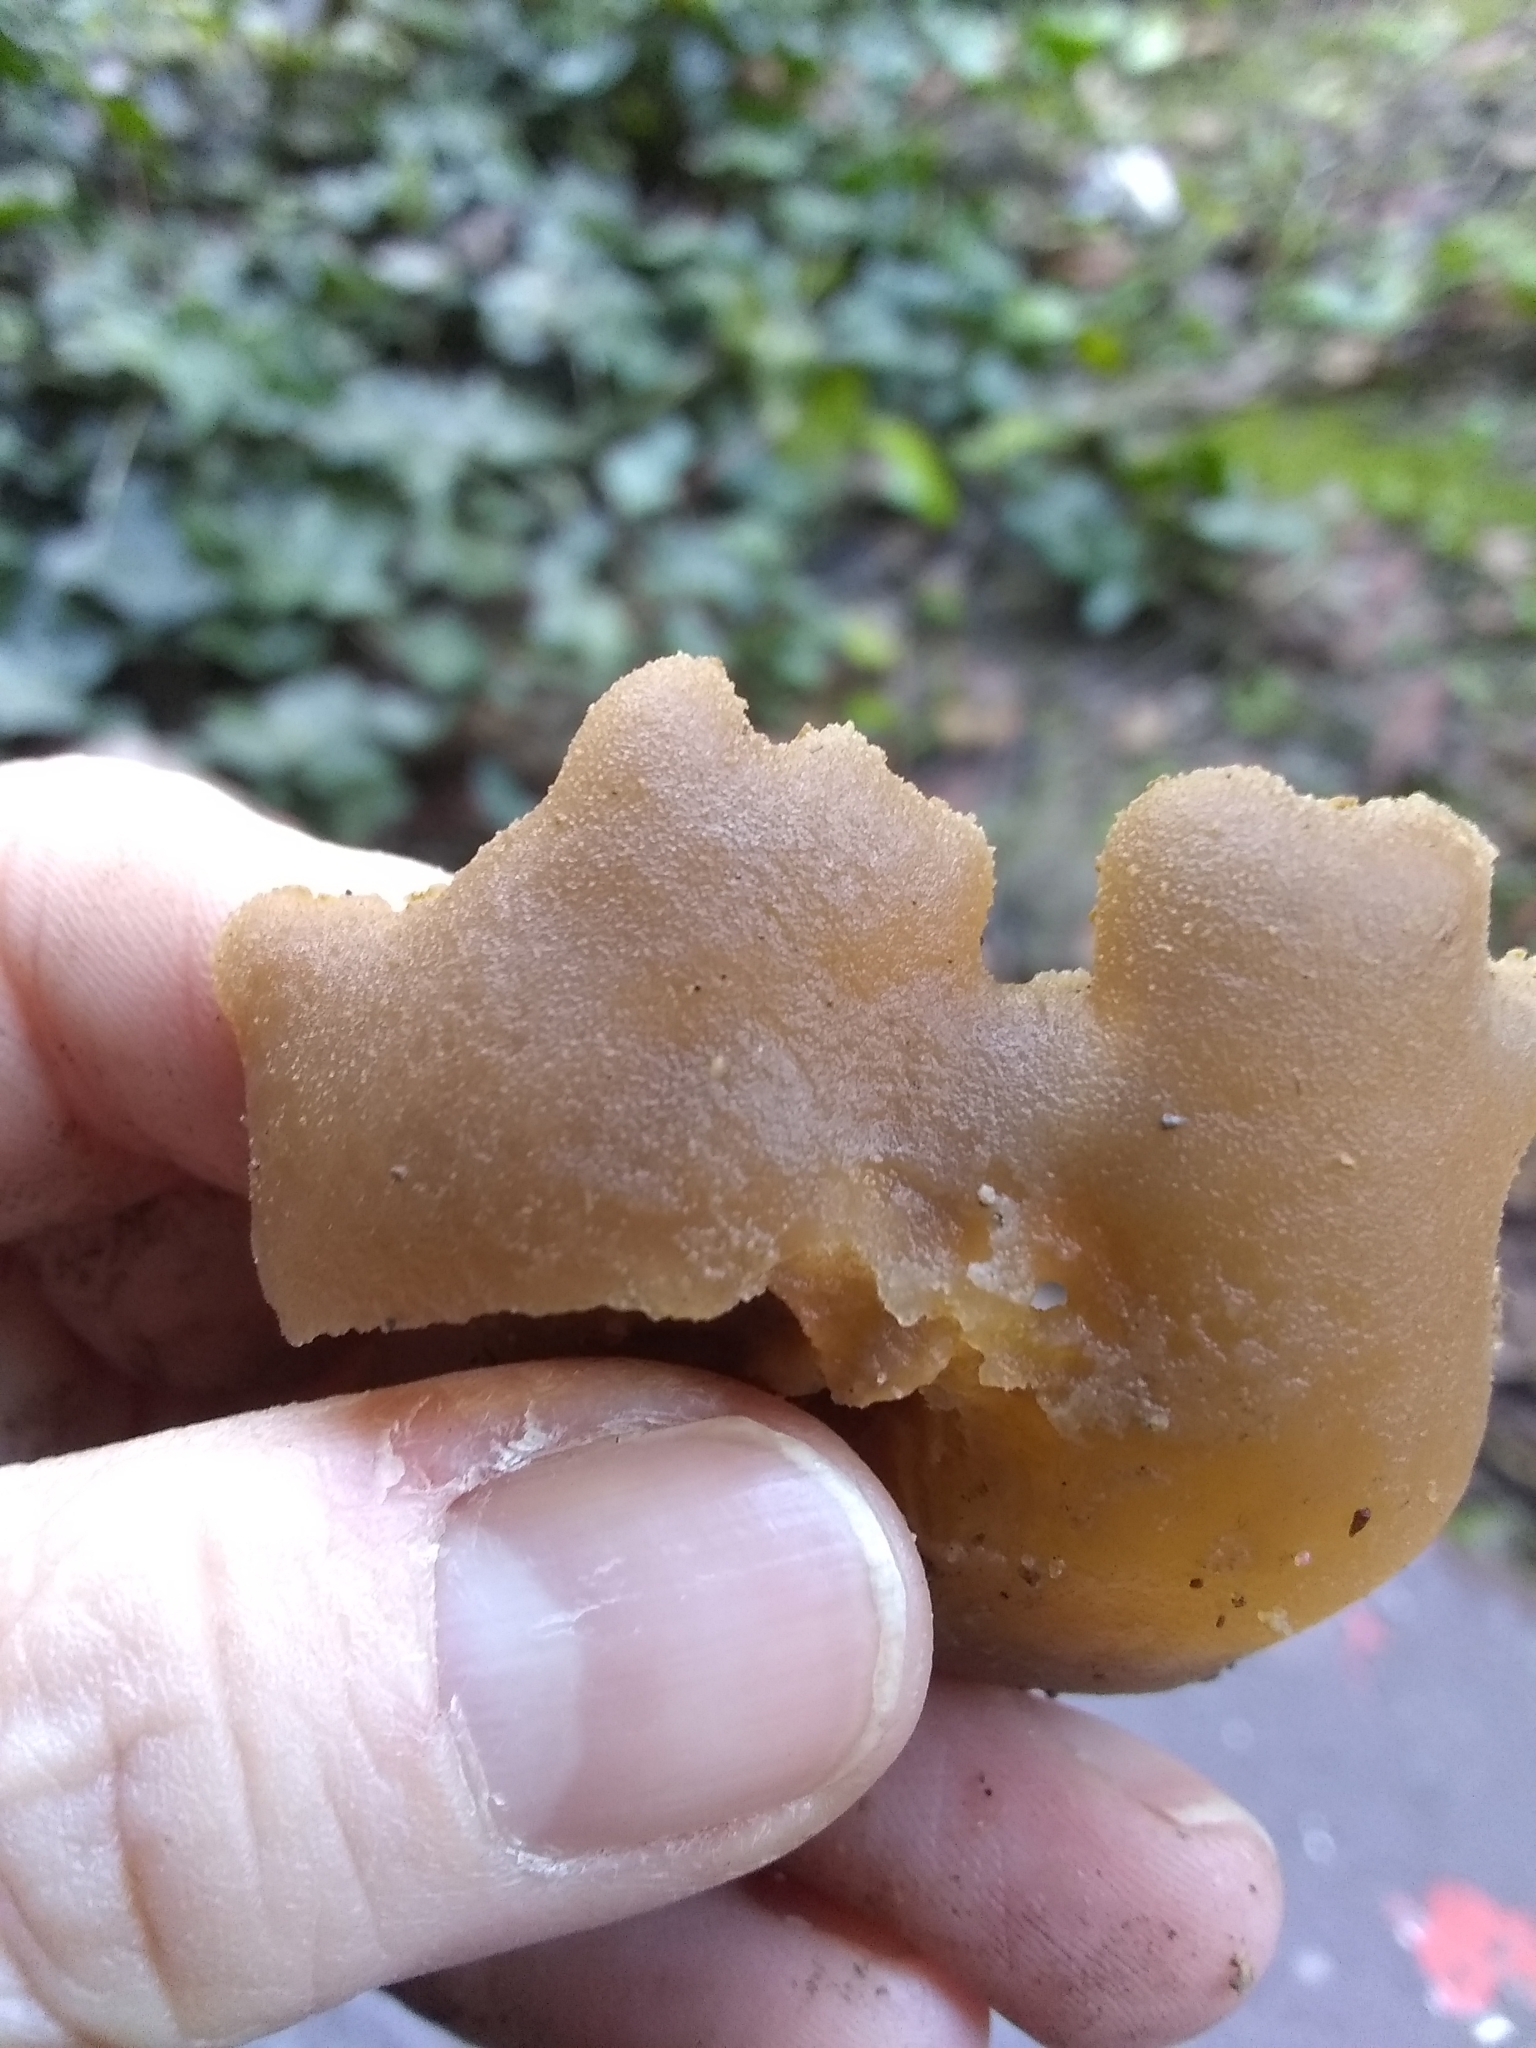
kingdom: Fungi
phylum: Ascomycota
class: Pezizomycetes
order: Pezizales
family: Pezizaceae
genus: Peziza
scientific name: Peziza varia
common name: Layered cup
